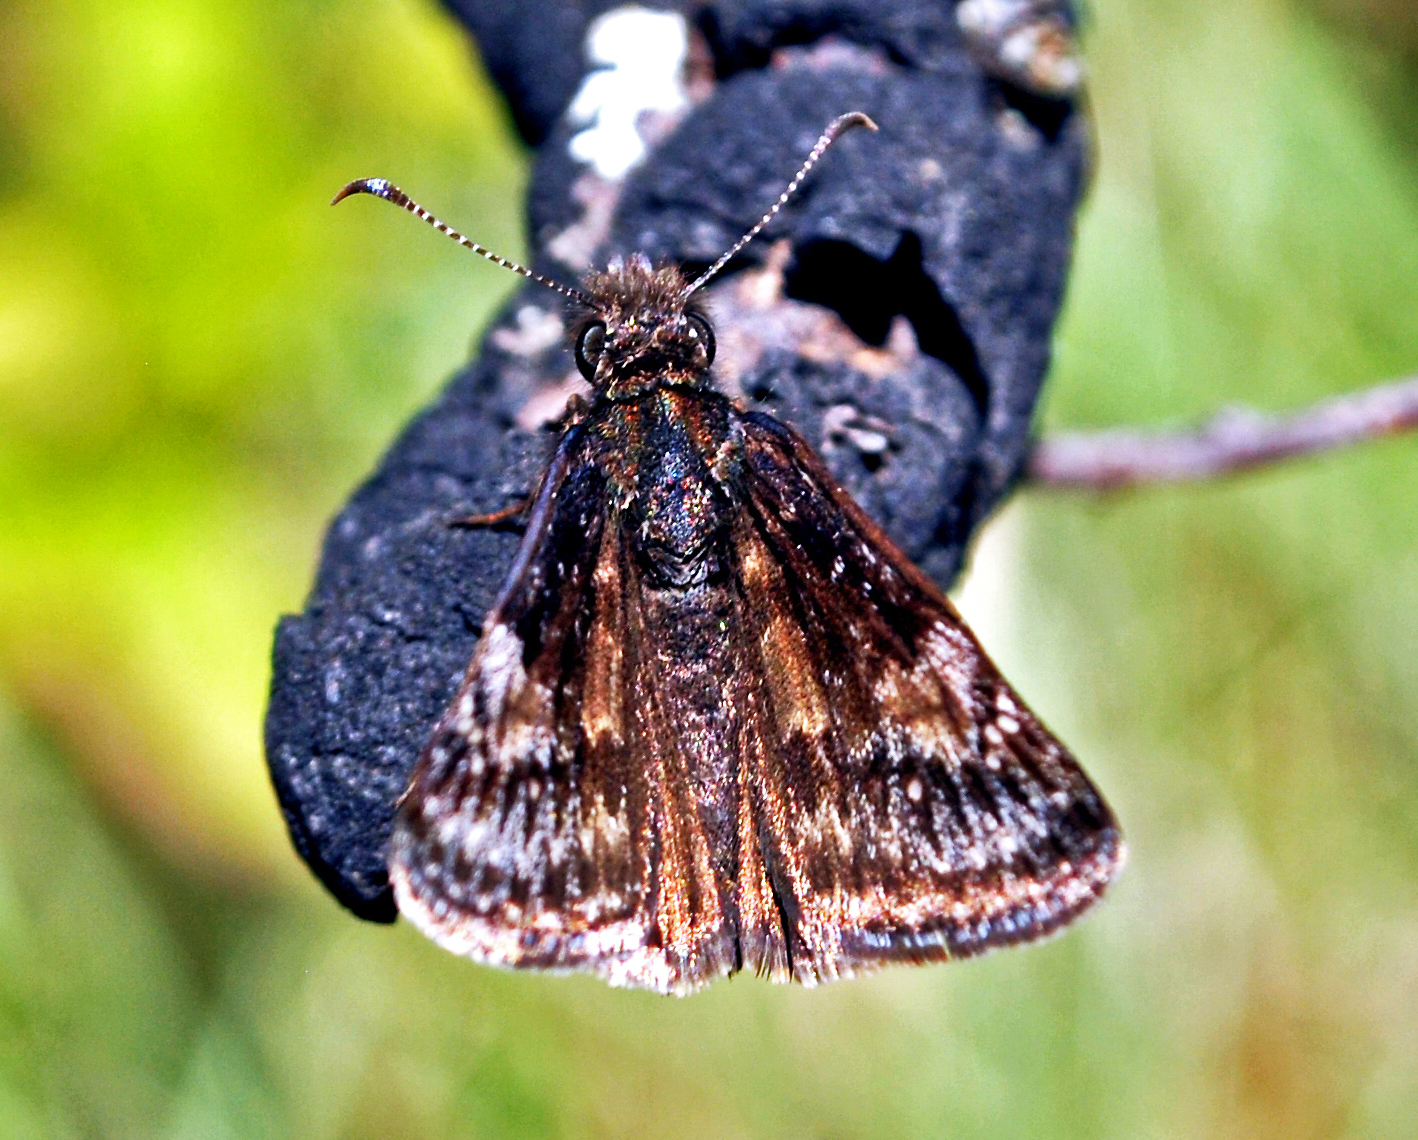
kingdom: Animalia
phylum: Arthropoda
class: Insecta
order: Lepidoptera
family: Hesperiidae
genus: Erynnis
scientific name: Erynnis lucilius
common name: Columbine duskywing
